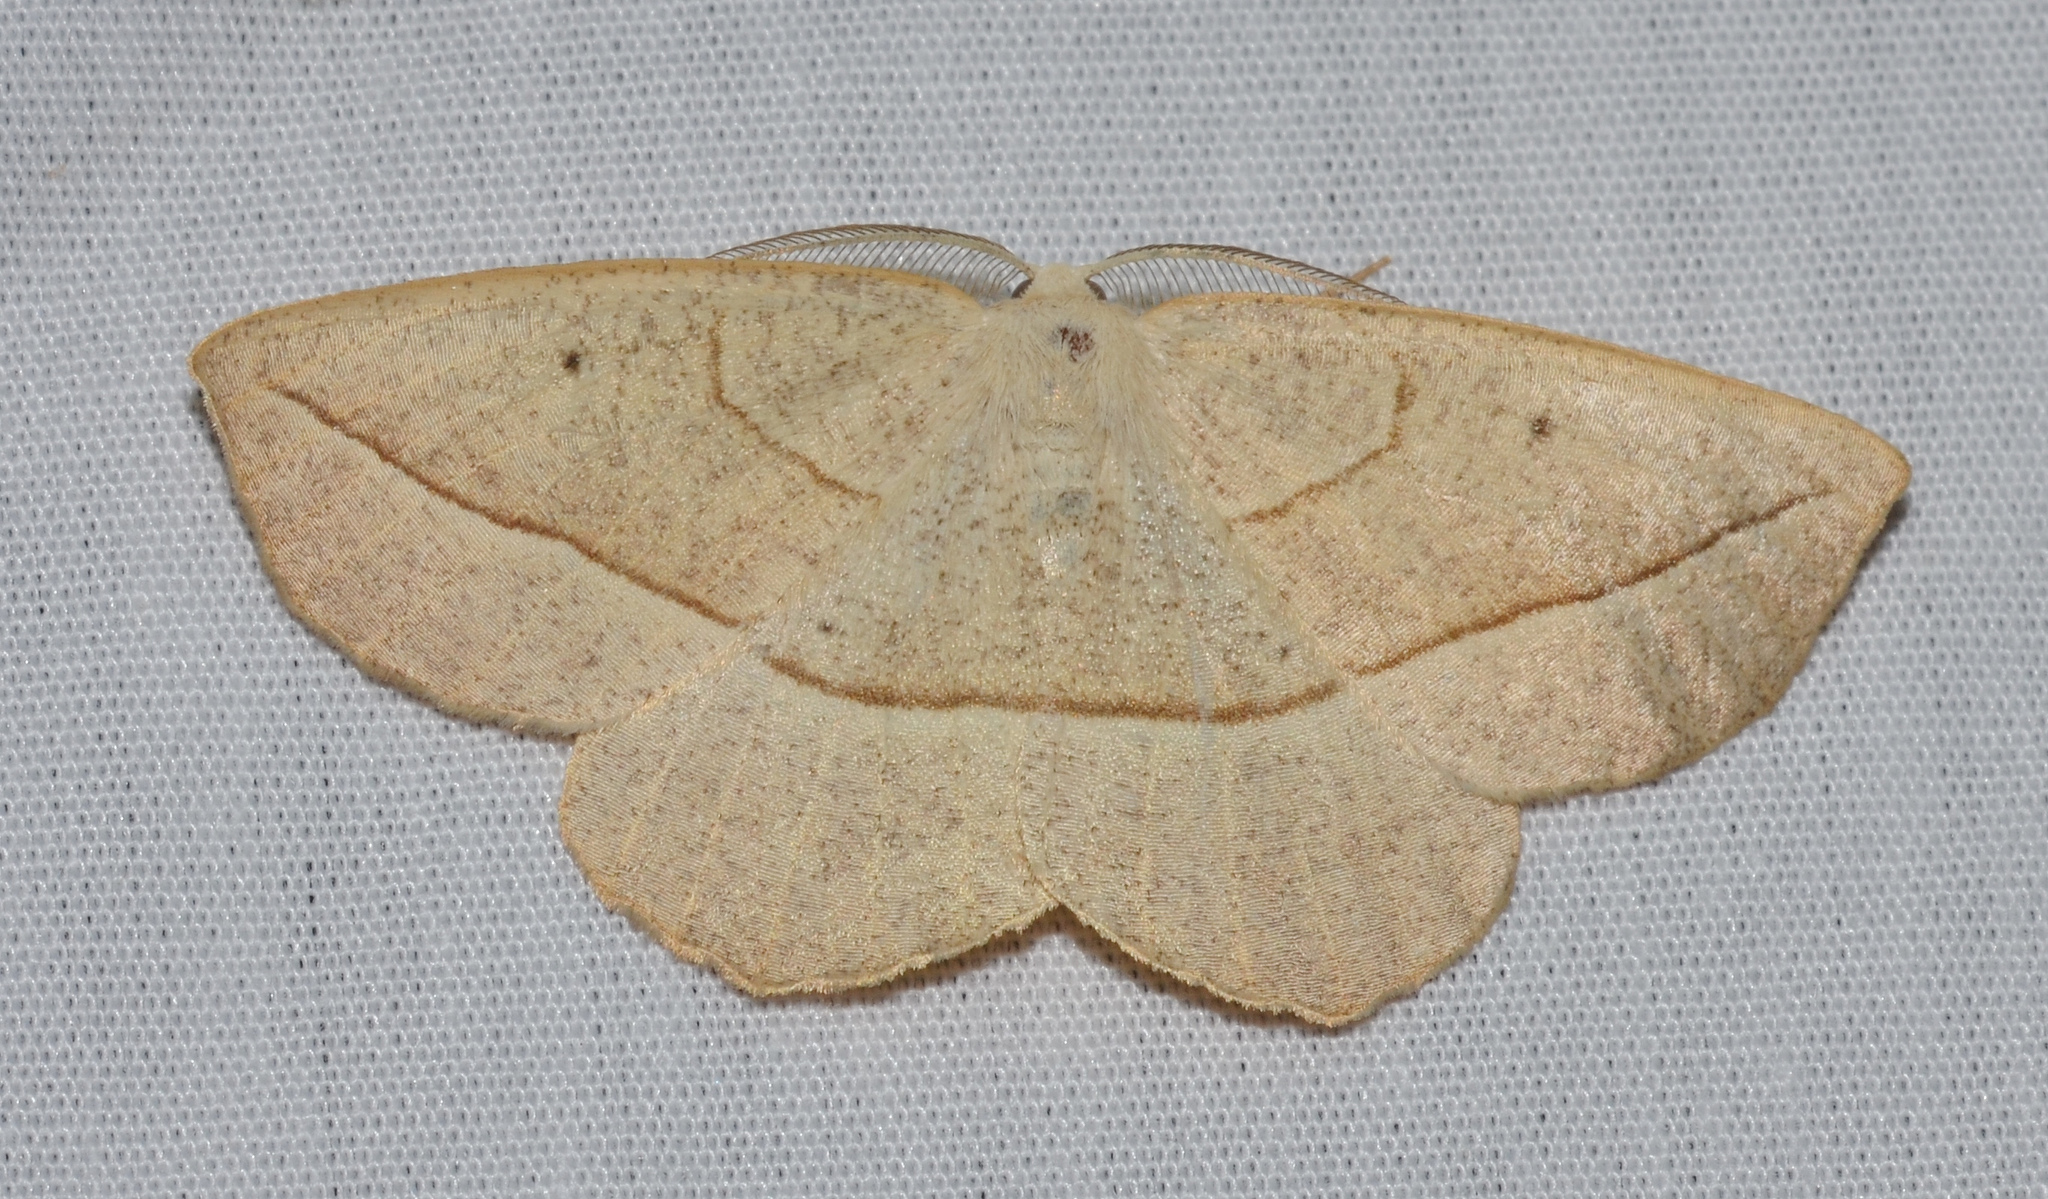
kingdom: Animalia
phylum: Arthropoda
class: Insecta
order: Lepidoptera
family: Geometridae
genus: Eusarca
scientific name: Eusarca confusaria
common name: Confused eusarca
